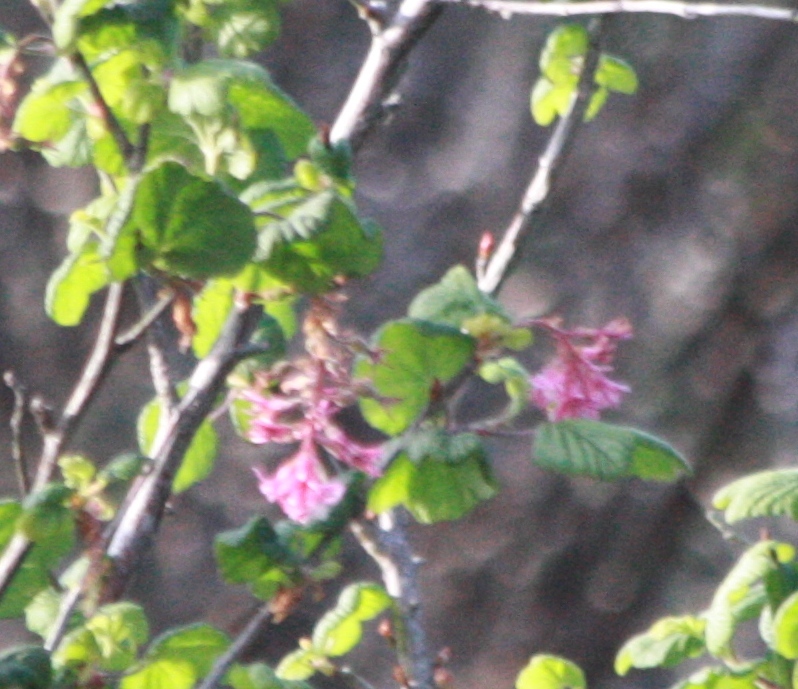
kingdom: Plantae
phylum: Tracheophyta
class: Magnoliopsida
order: Saxifragales
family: Grossulariaceae
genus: Ribes
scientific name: Ribes sanguineum
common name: Flowering currant
